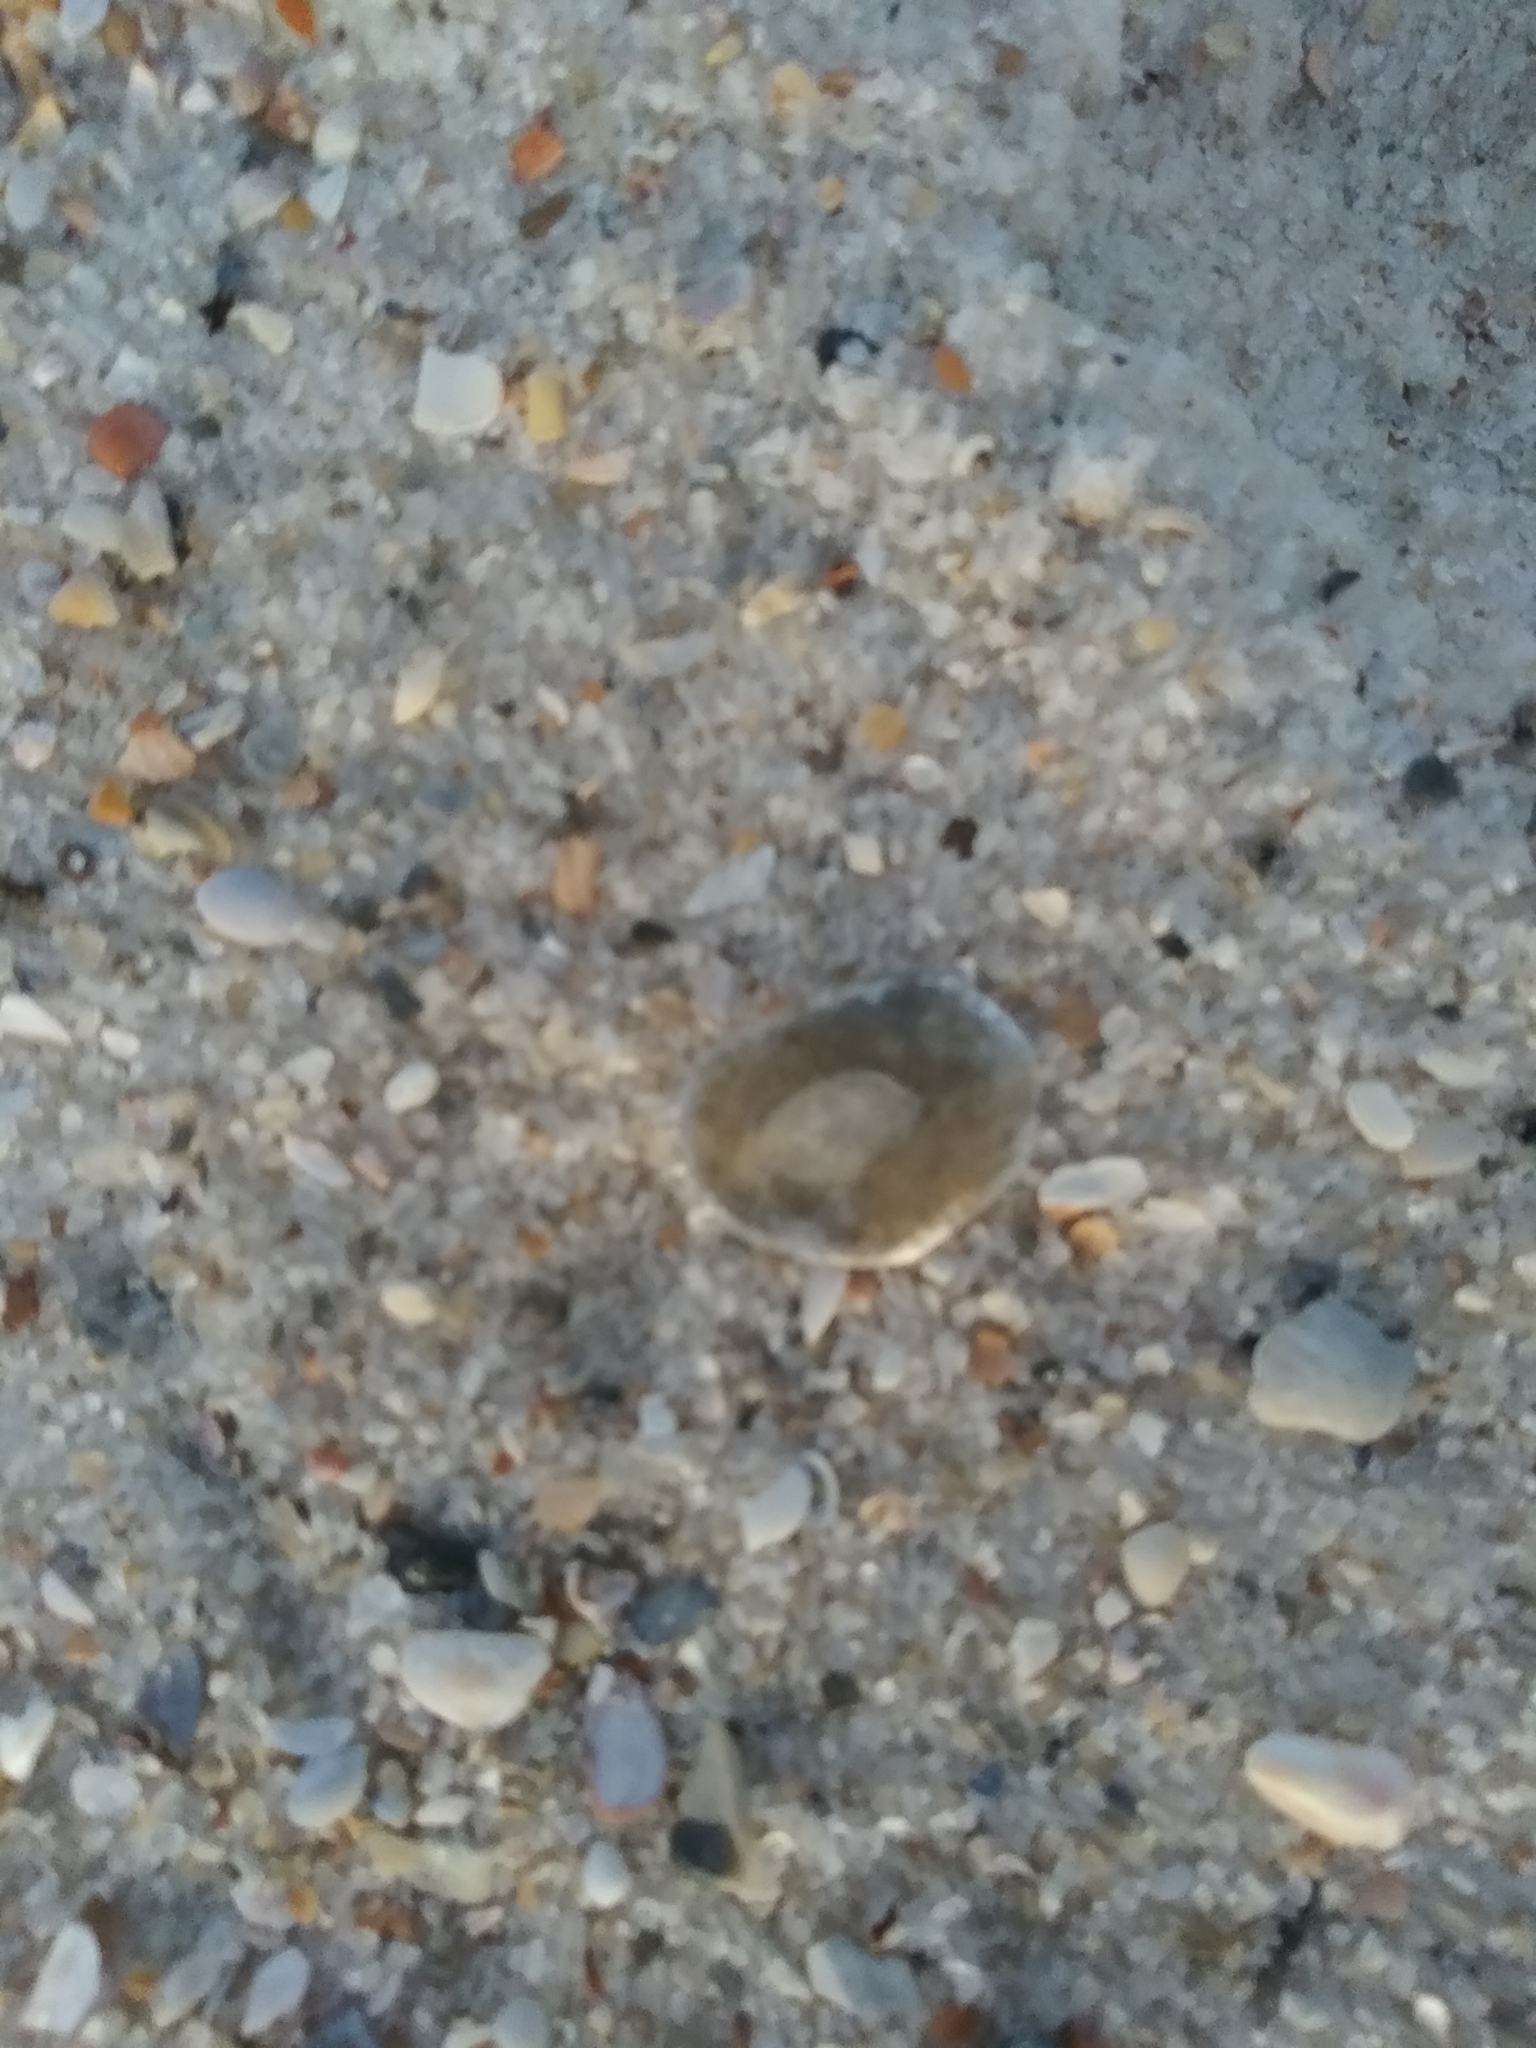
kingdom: Animalia
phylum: Mollusca
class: Bivalvia
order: Pectinida
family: Anomiidae
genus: Anomia
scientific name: Anomia simplex
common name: Common jingle shell
